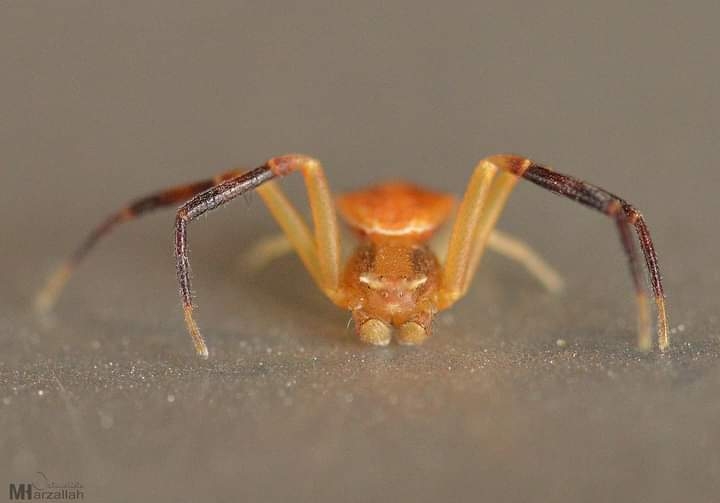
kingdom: Animalia
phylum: Arthropoda
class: Arachnida
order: Araneae
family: Thomisidae
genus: Thomisus
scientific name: Thomisus onustus
